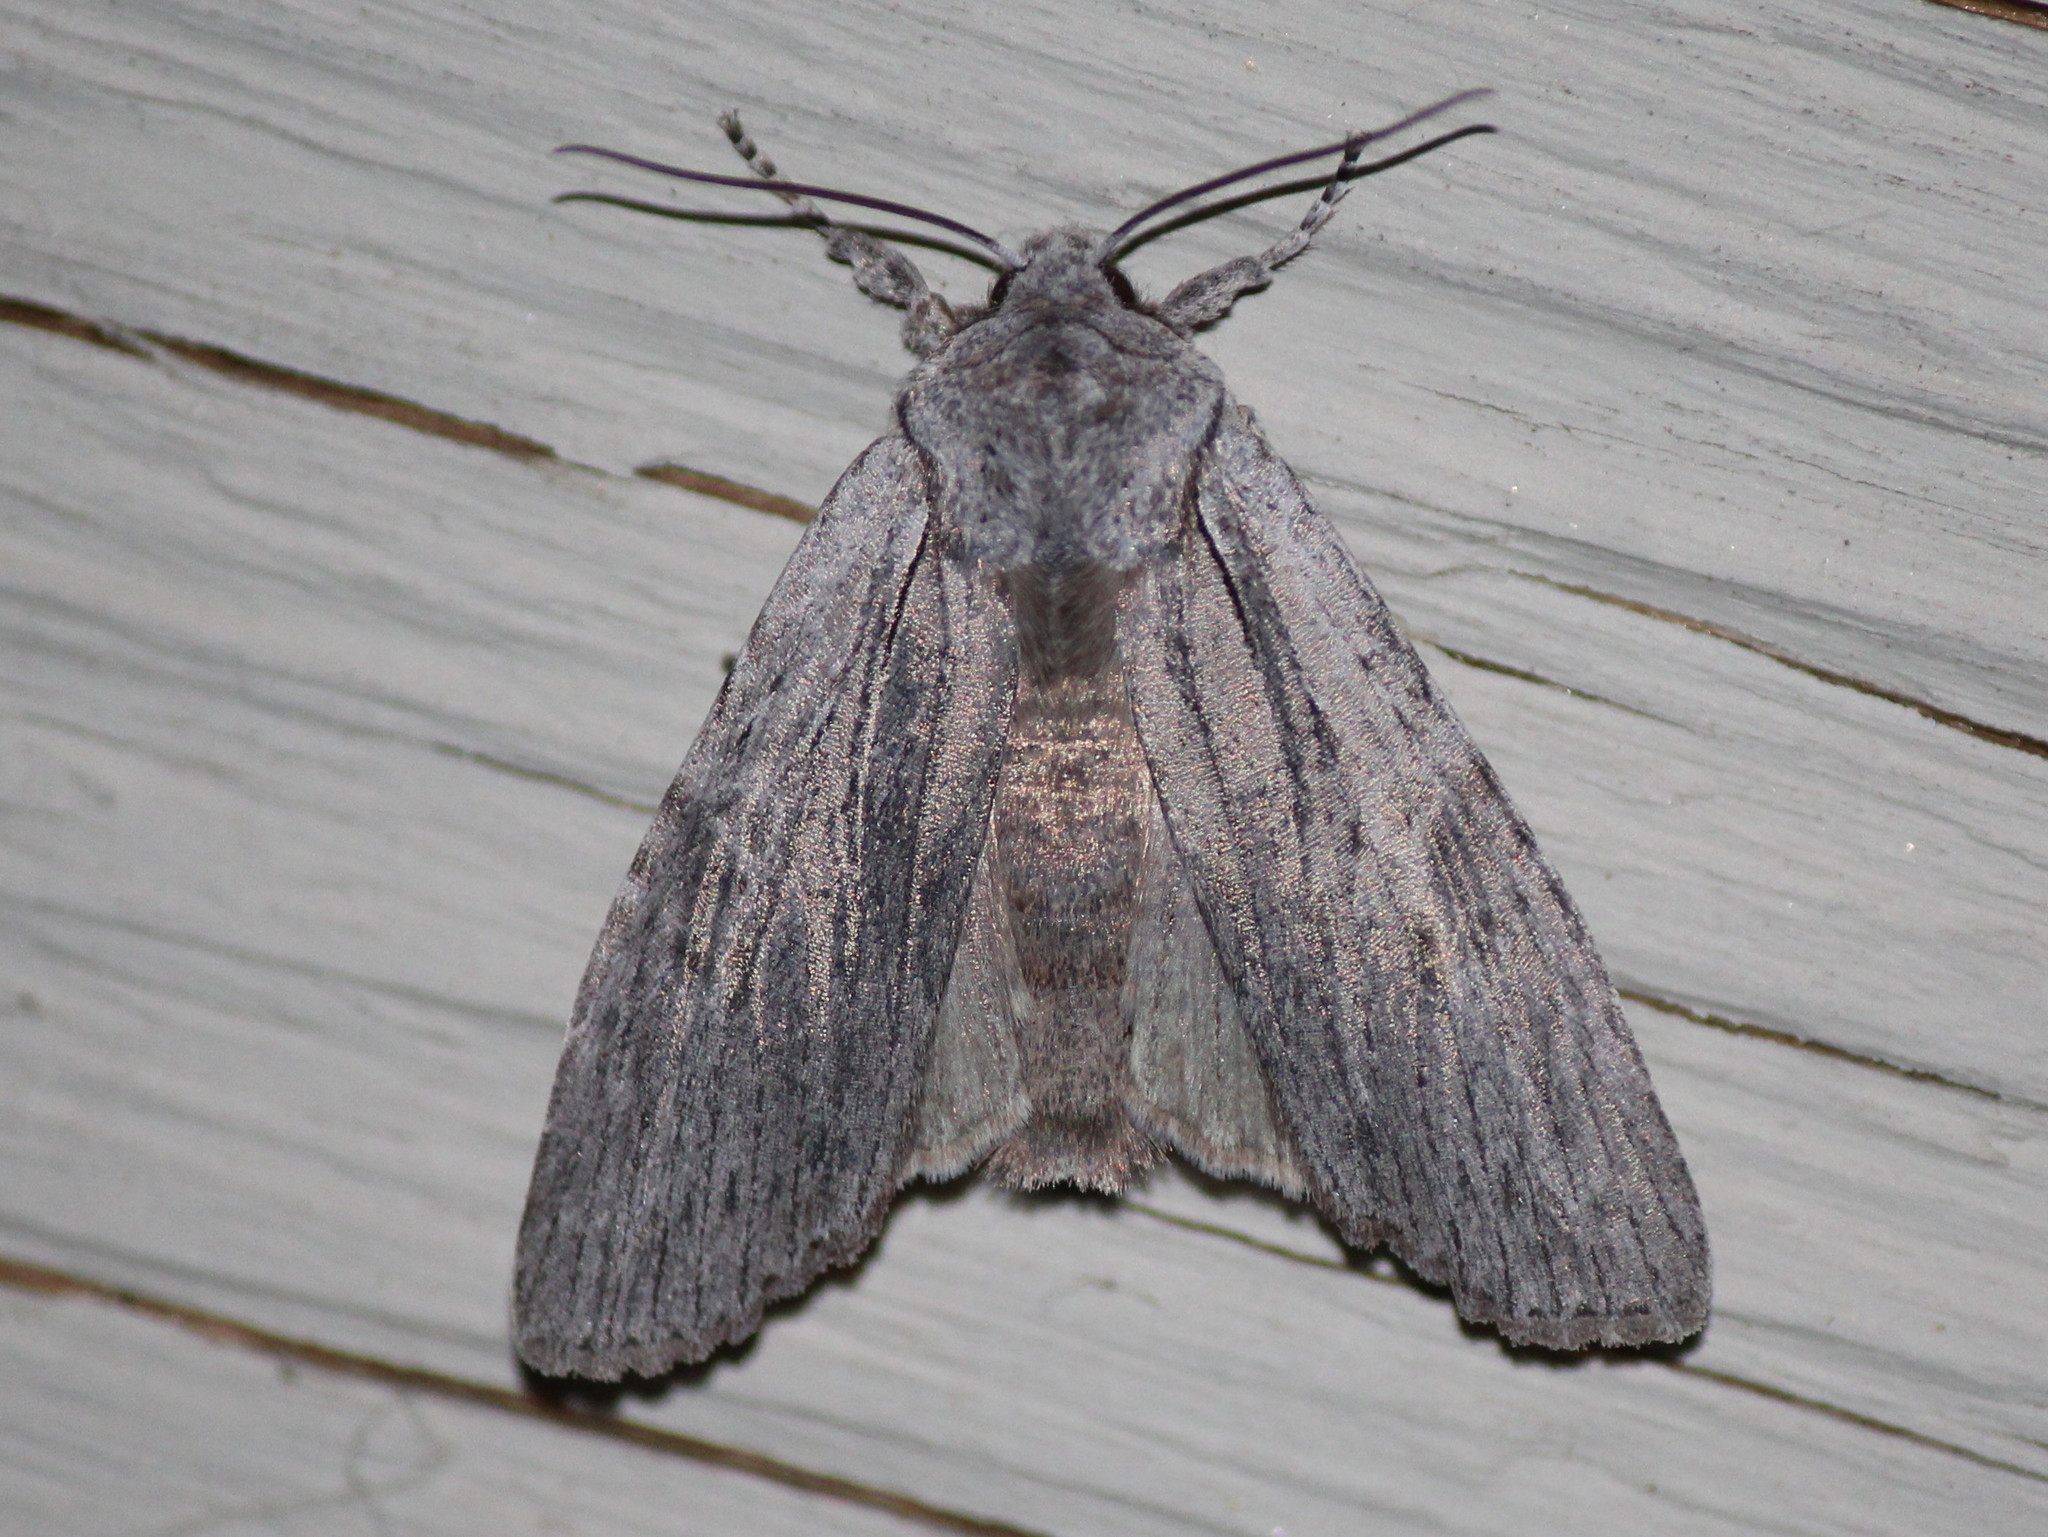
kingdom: Animalia
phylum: Arthropoda
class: Insecta
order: Lepidoptera
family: Noctuidae
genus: Lithophane
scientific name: Lithophane georgii
